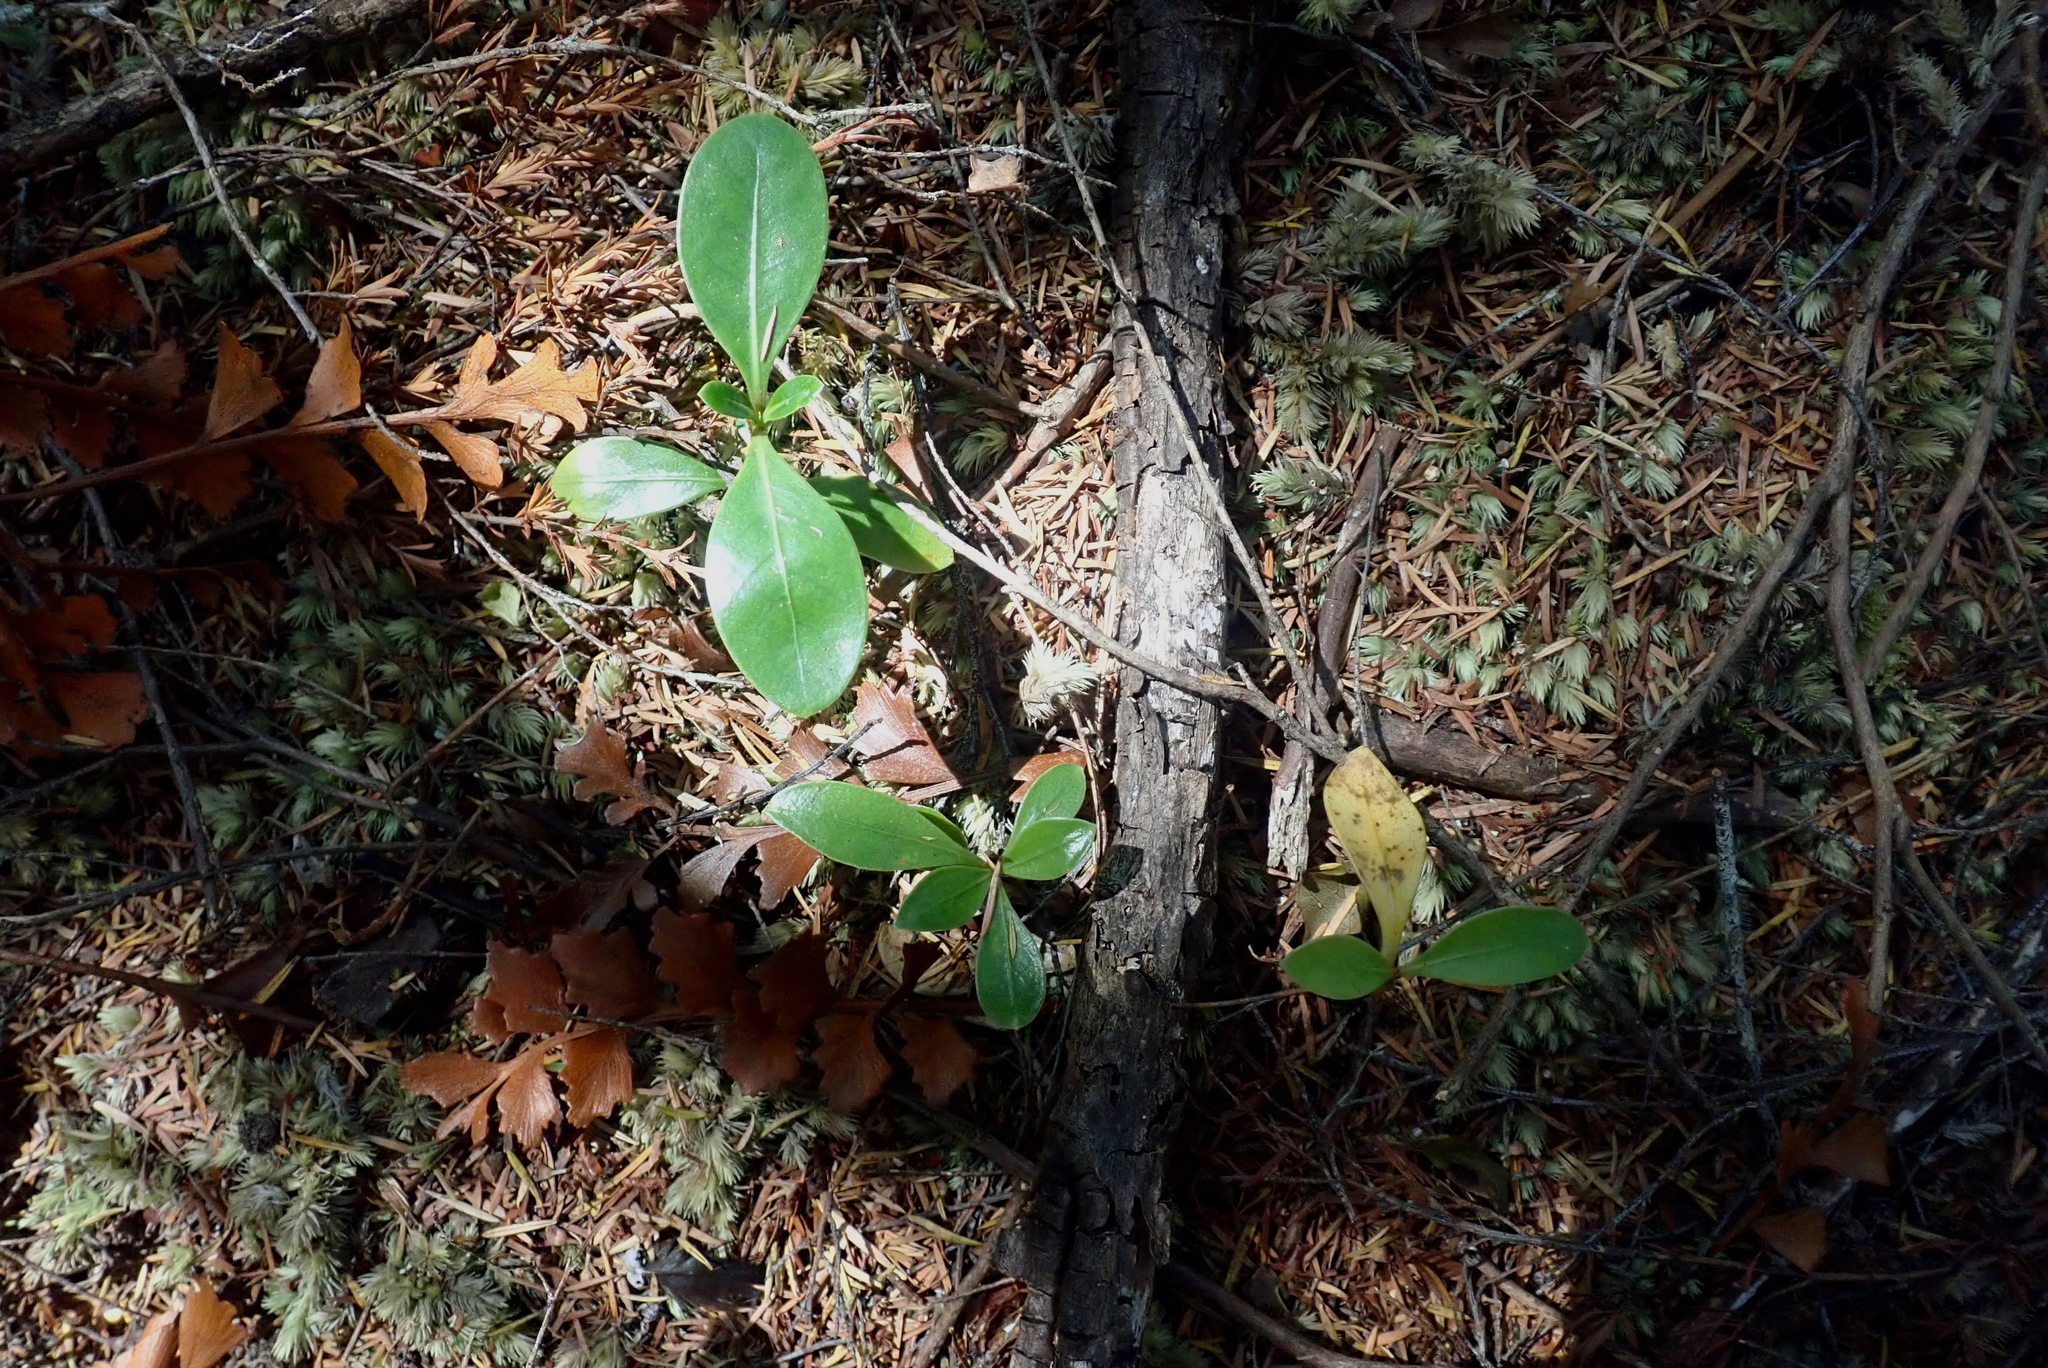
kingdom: Plantae
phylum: Tracheophyta
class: Magnoliopsida
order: Gentianales
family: Rubiaceae
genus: Coprosma
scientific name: Coprosma lucida
